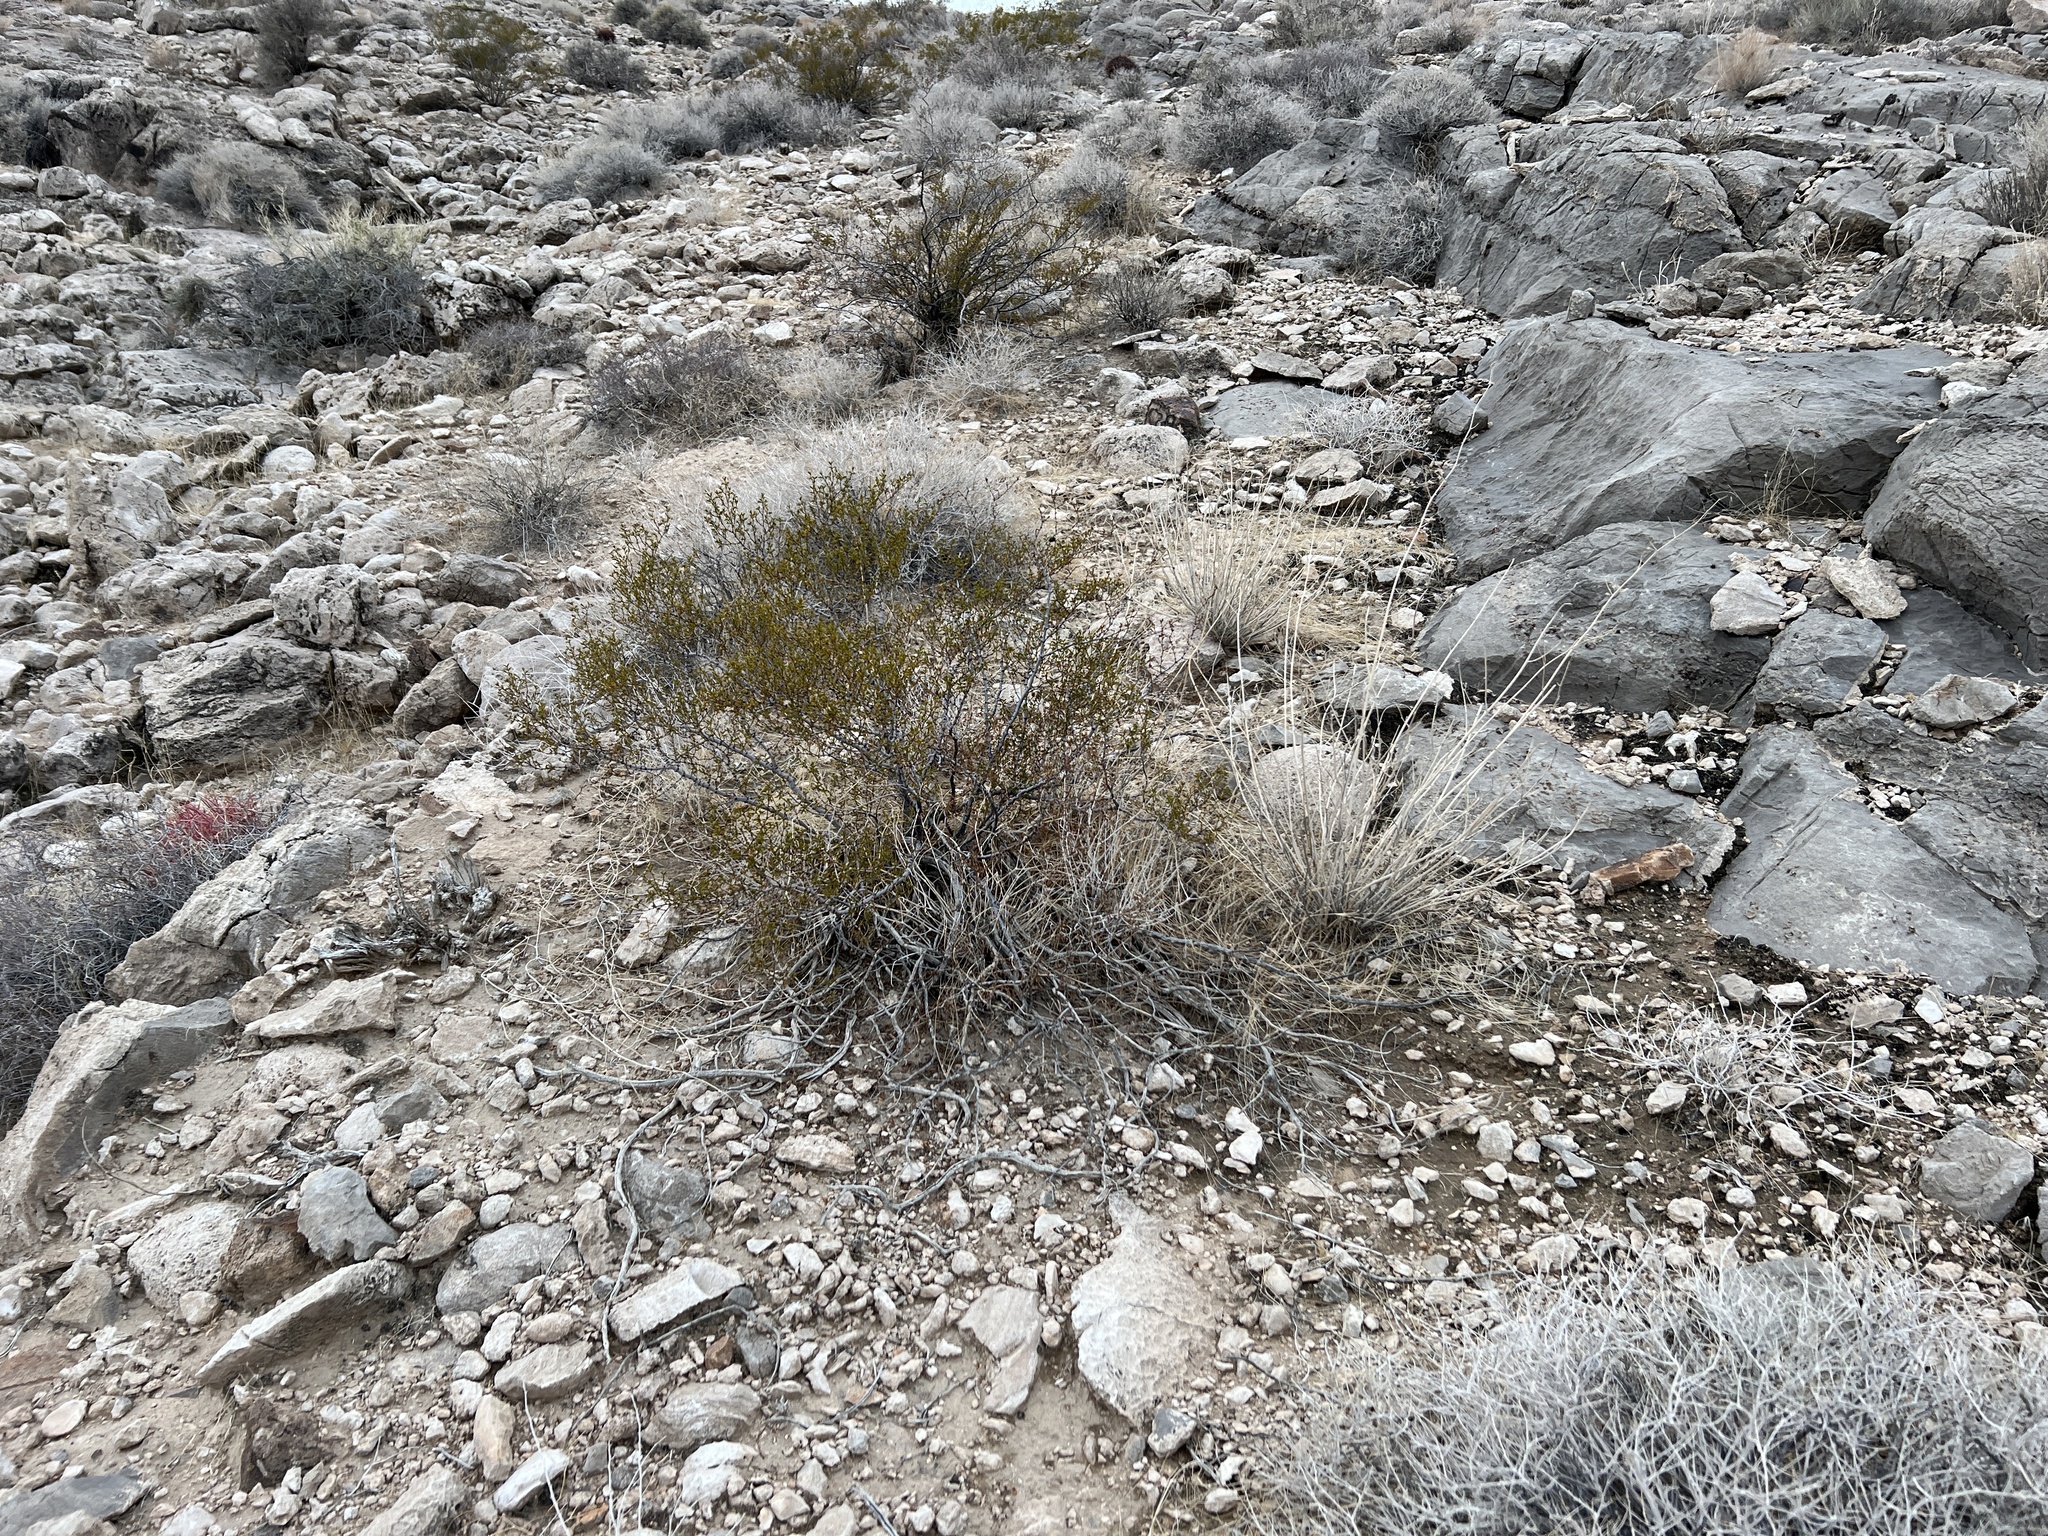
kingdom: Plantae
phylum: Tracheophyta
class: Magnoliopsida
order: Zygophyllales
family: Zygophyllaceae
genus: Larrea
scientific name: Larrea tridentata
